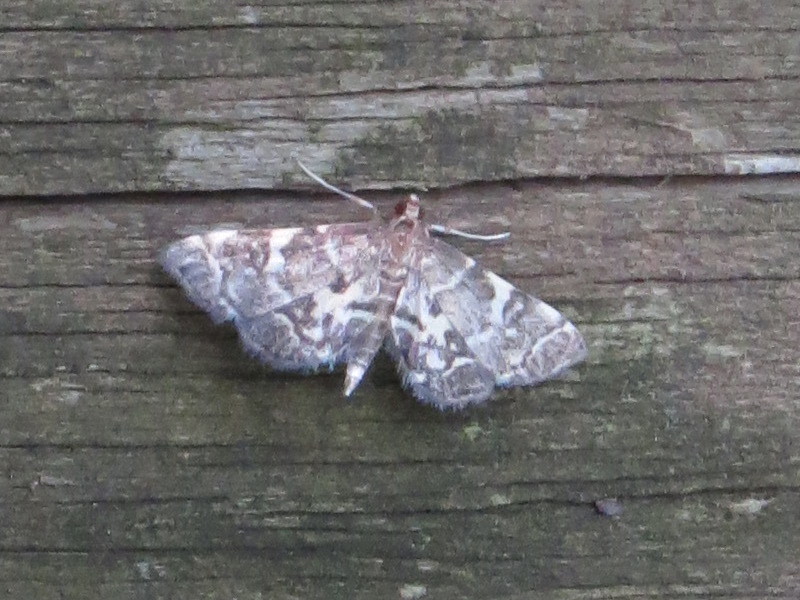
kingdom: Animalia
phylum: Arthropoda
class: Insecta
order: Lepidoptera
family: Crambidae
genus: Anageshna
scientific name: Anageshna primordialis
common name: Yellow-spotted webworm moth
